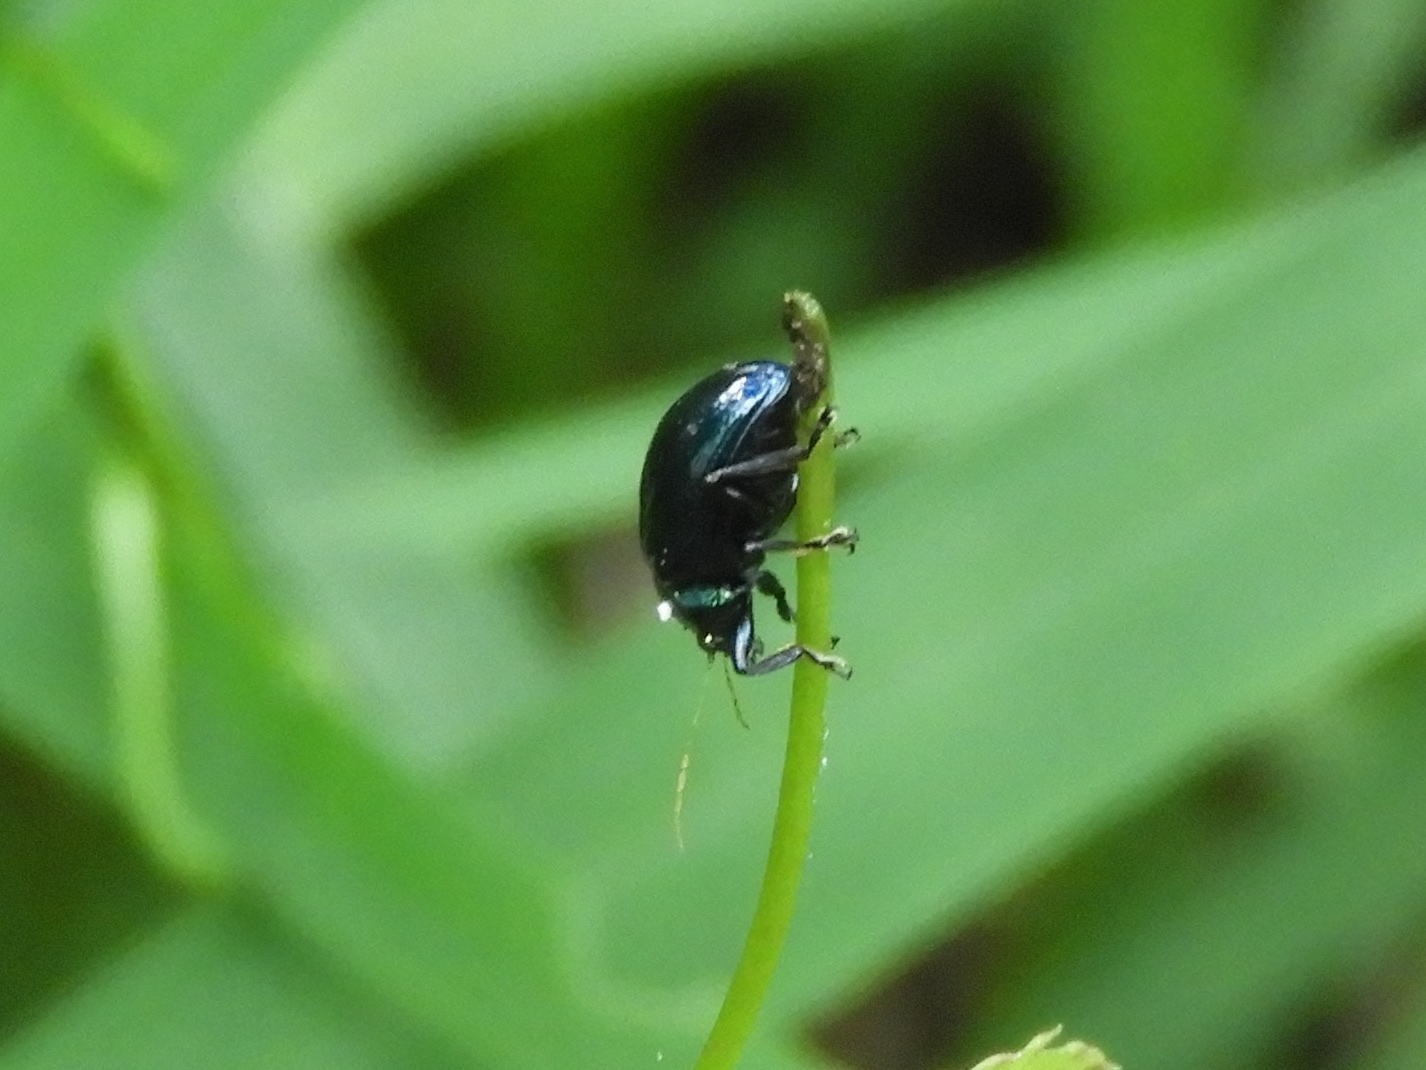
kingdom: Animalia
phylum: Arthropoda
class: Insecta
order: Coleoptera
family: Chrysomelidae
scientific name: Chrysomelidae
